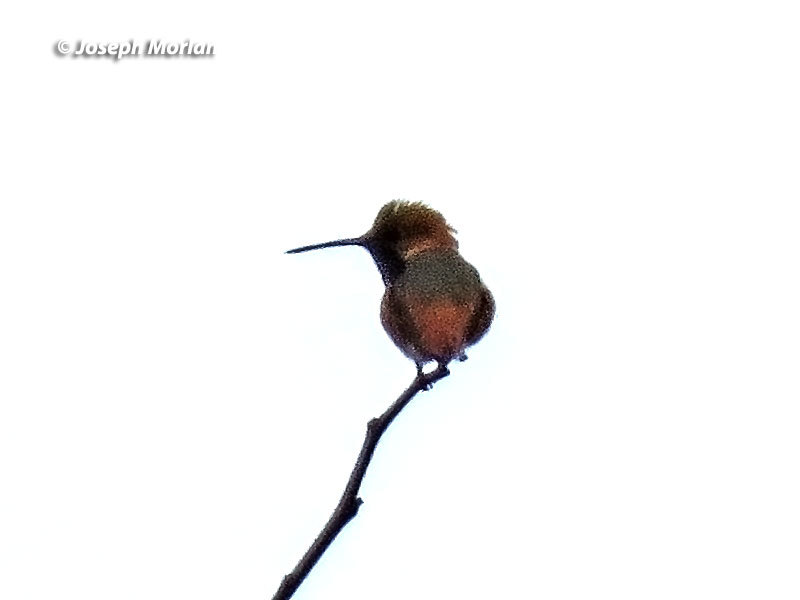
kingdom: Animalia
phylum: Chordata
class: Aves
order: Apodiformes
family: Trochilidae
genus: Selasphorus
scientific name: Selasphorus sasin
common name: Allen's hummingbird
